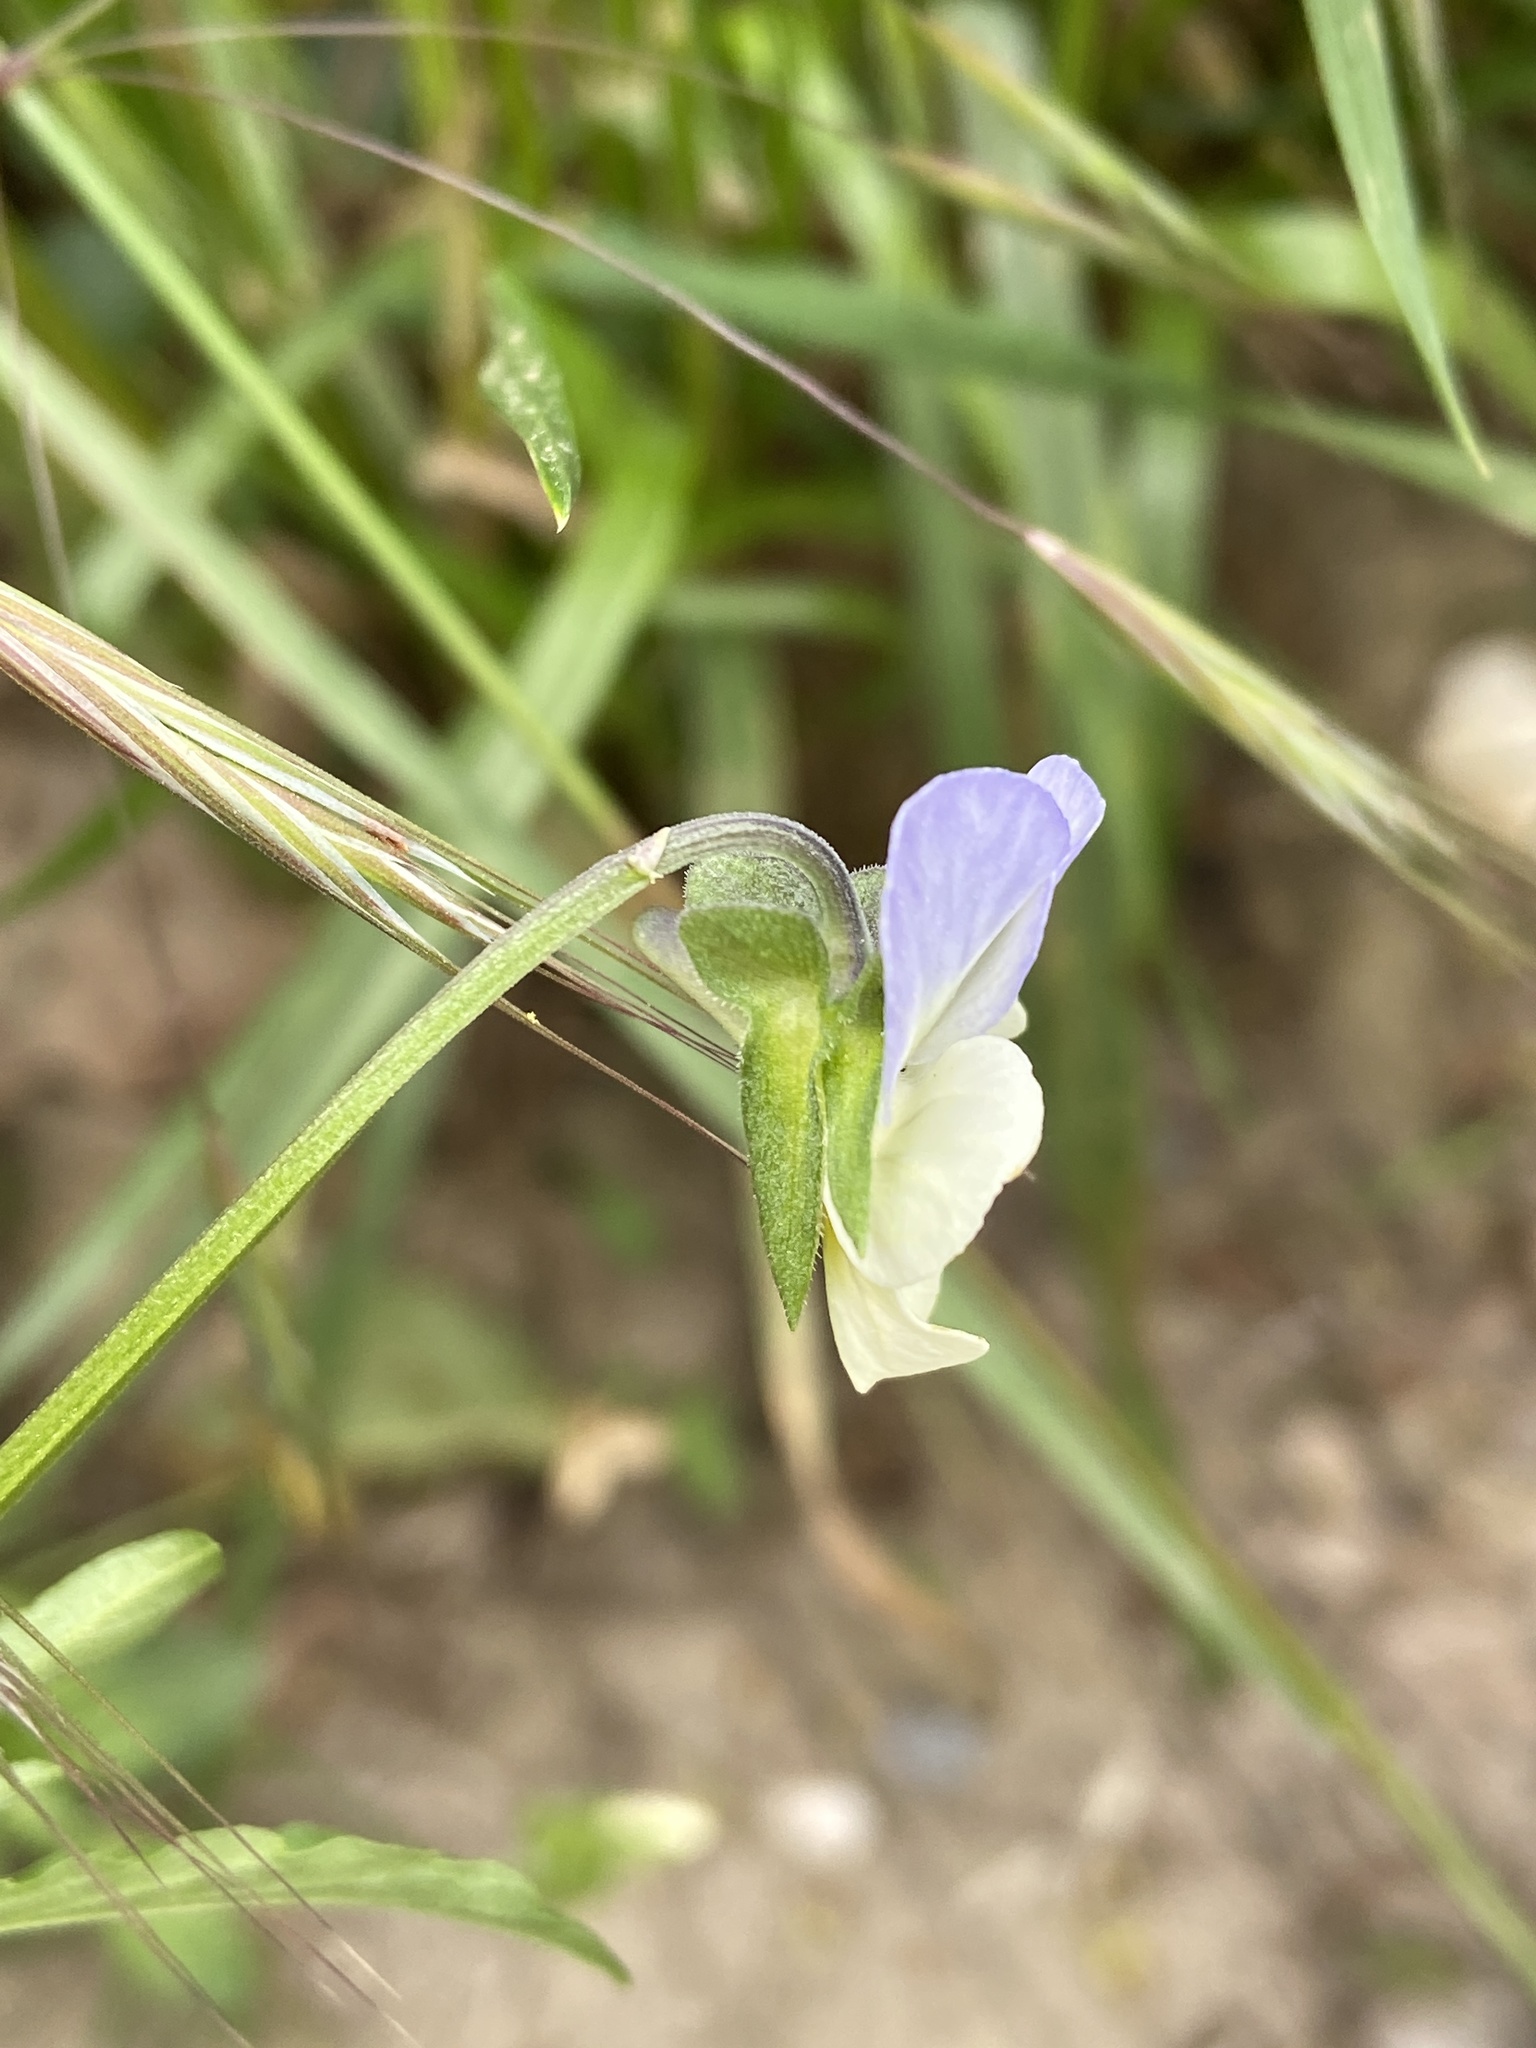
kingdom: Plantae
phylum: Tracheophyta
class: Magnoliopsida
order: Malpighiales
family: Violaceae
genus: Viola
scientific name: Viola arvensis
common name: Field pansy
